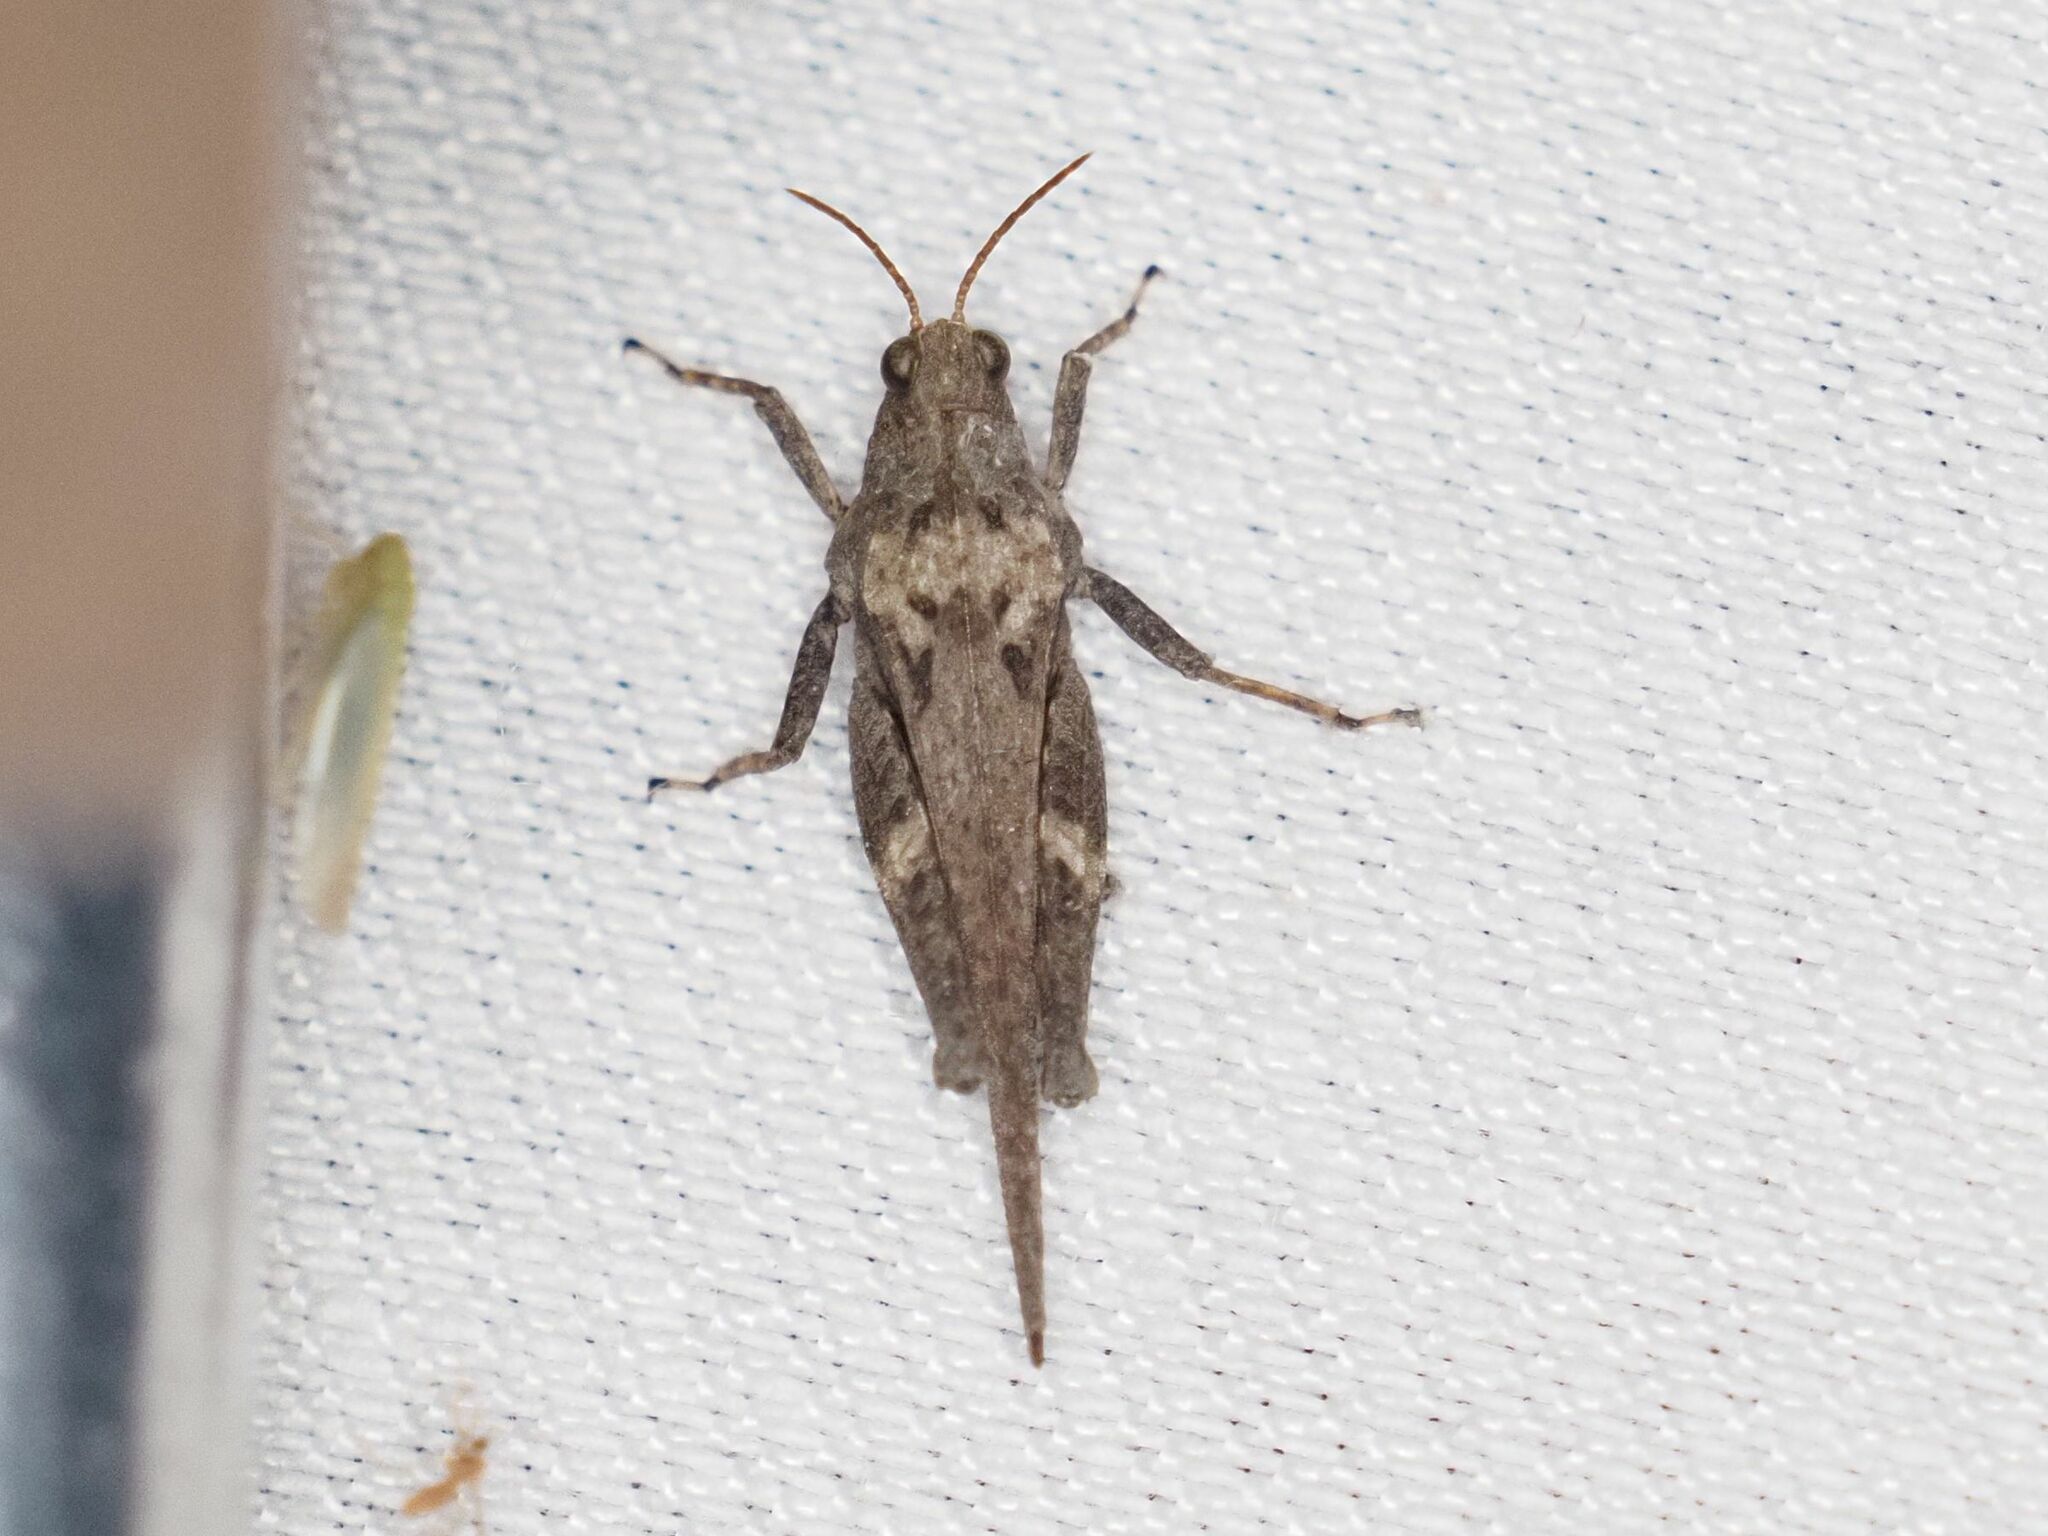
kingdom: Animalia
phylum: Arthropoda
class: Insecta
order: Orthoptera
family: Tetrigidae
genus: Tetrix
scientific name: Tetrix subulata
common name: Slender ground-hopper
